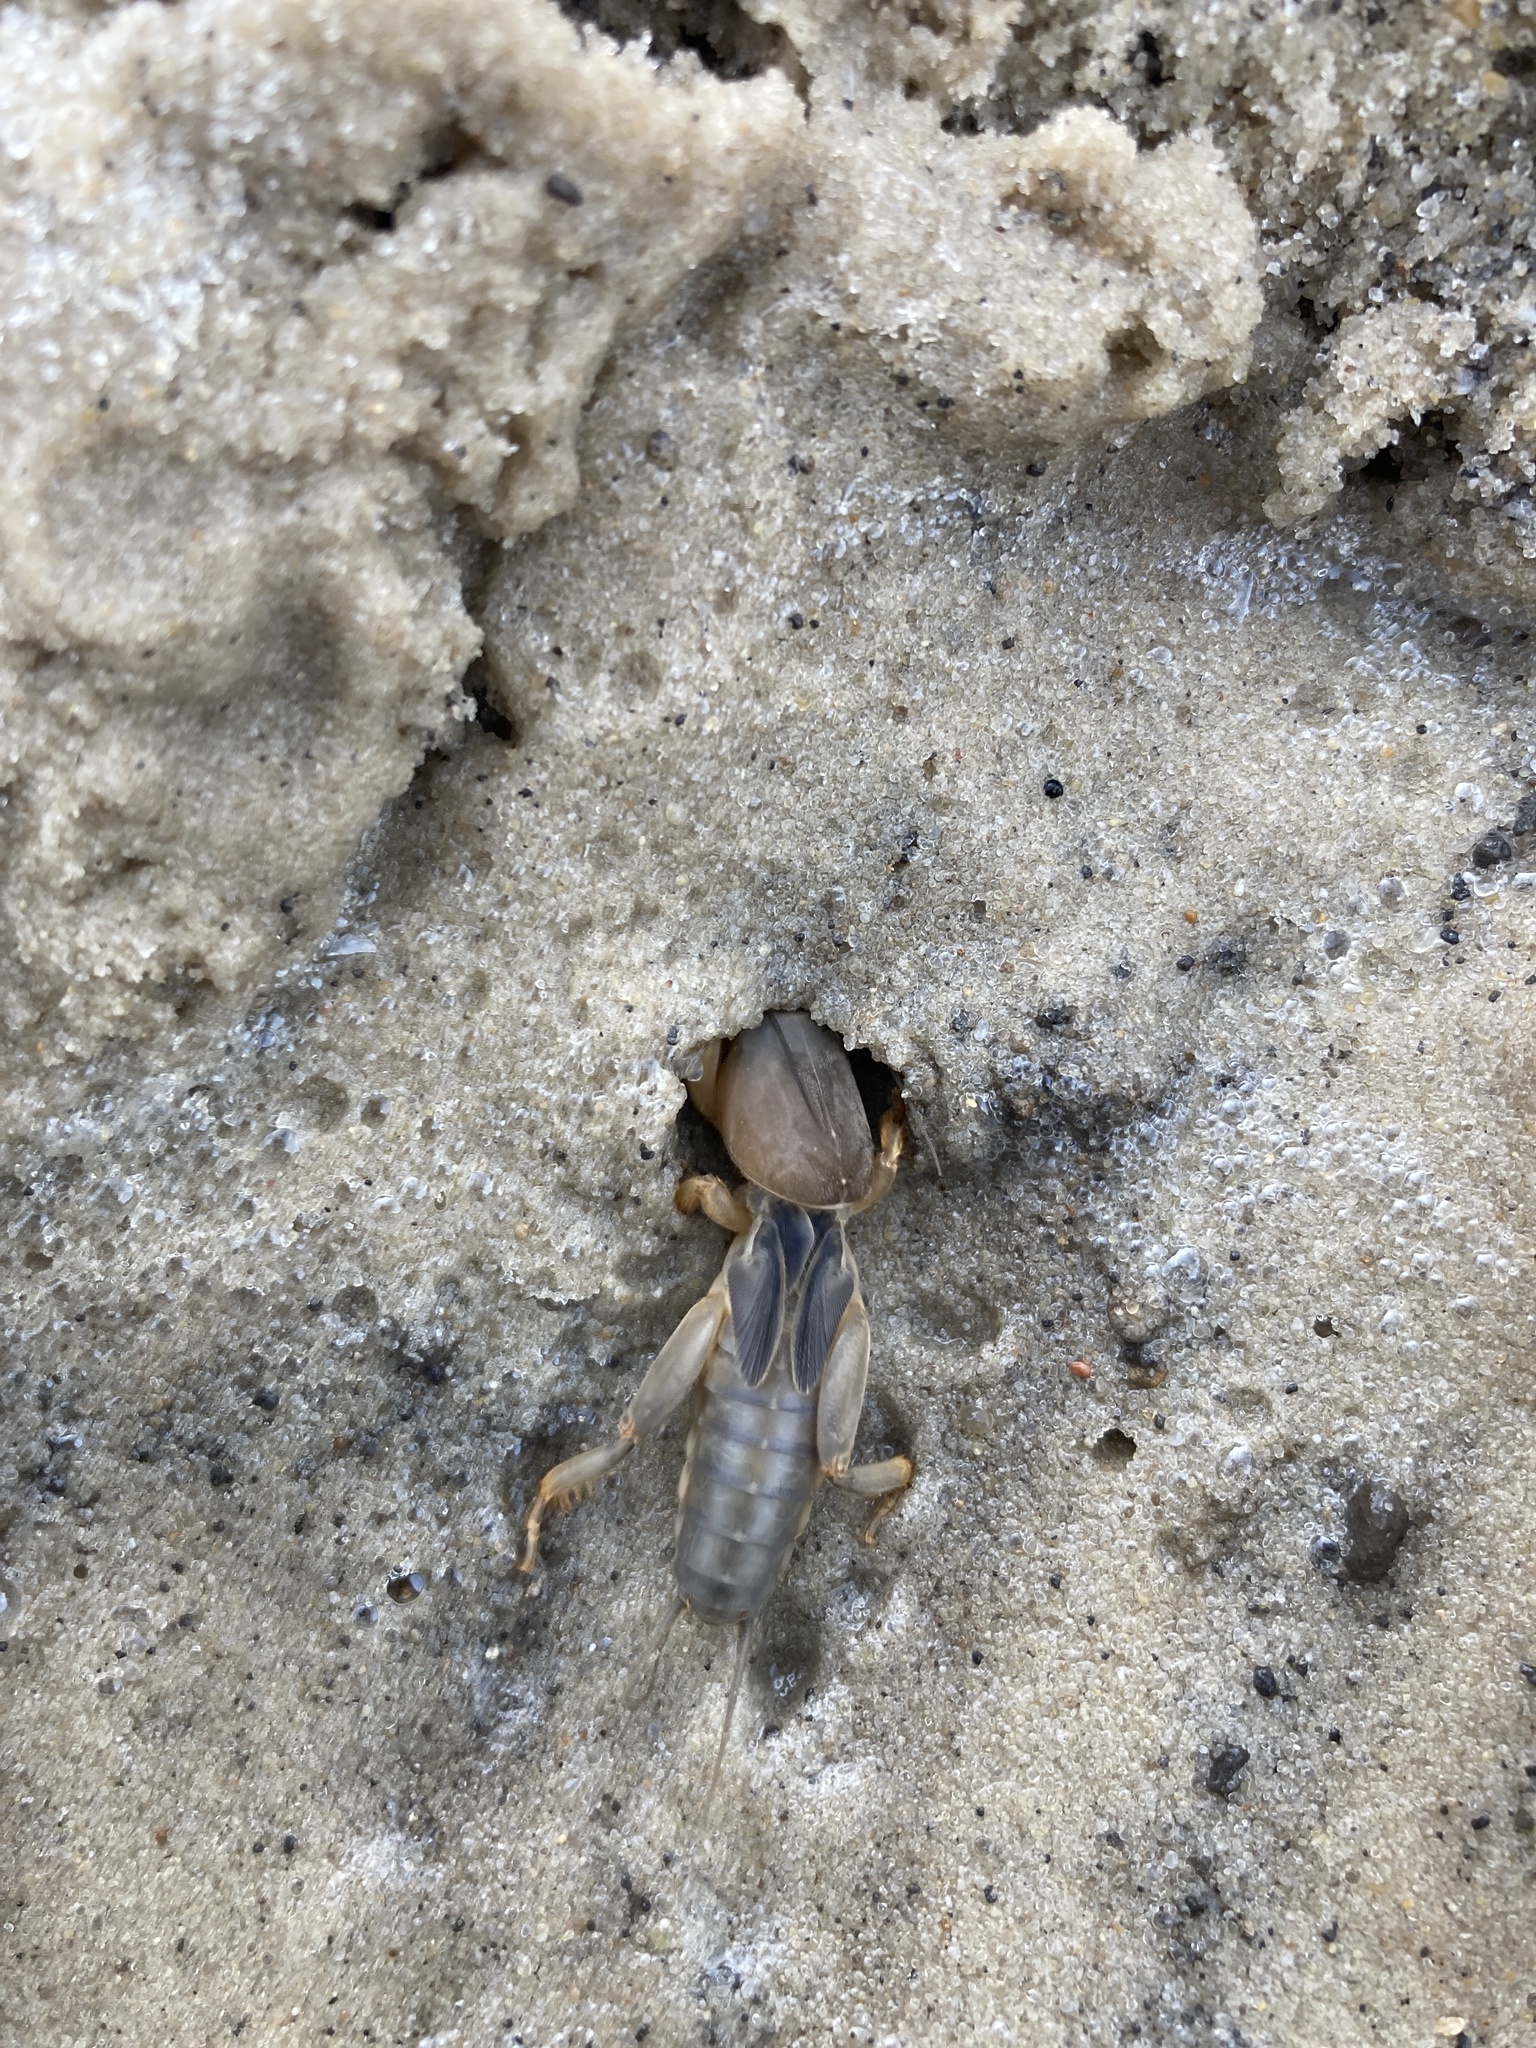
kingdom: Animalia
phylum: Arthropoda
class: Insecta
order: Orthoptera
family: Gryllotalpidae
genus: Gryllotalpa
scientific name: Gryllotalpa gryllotalpa
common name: European mole cricket
